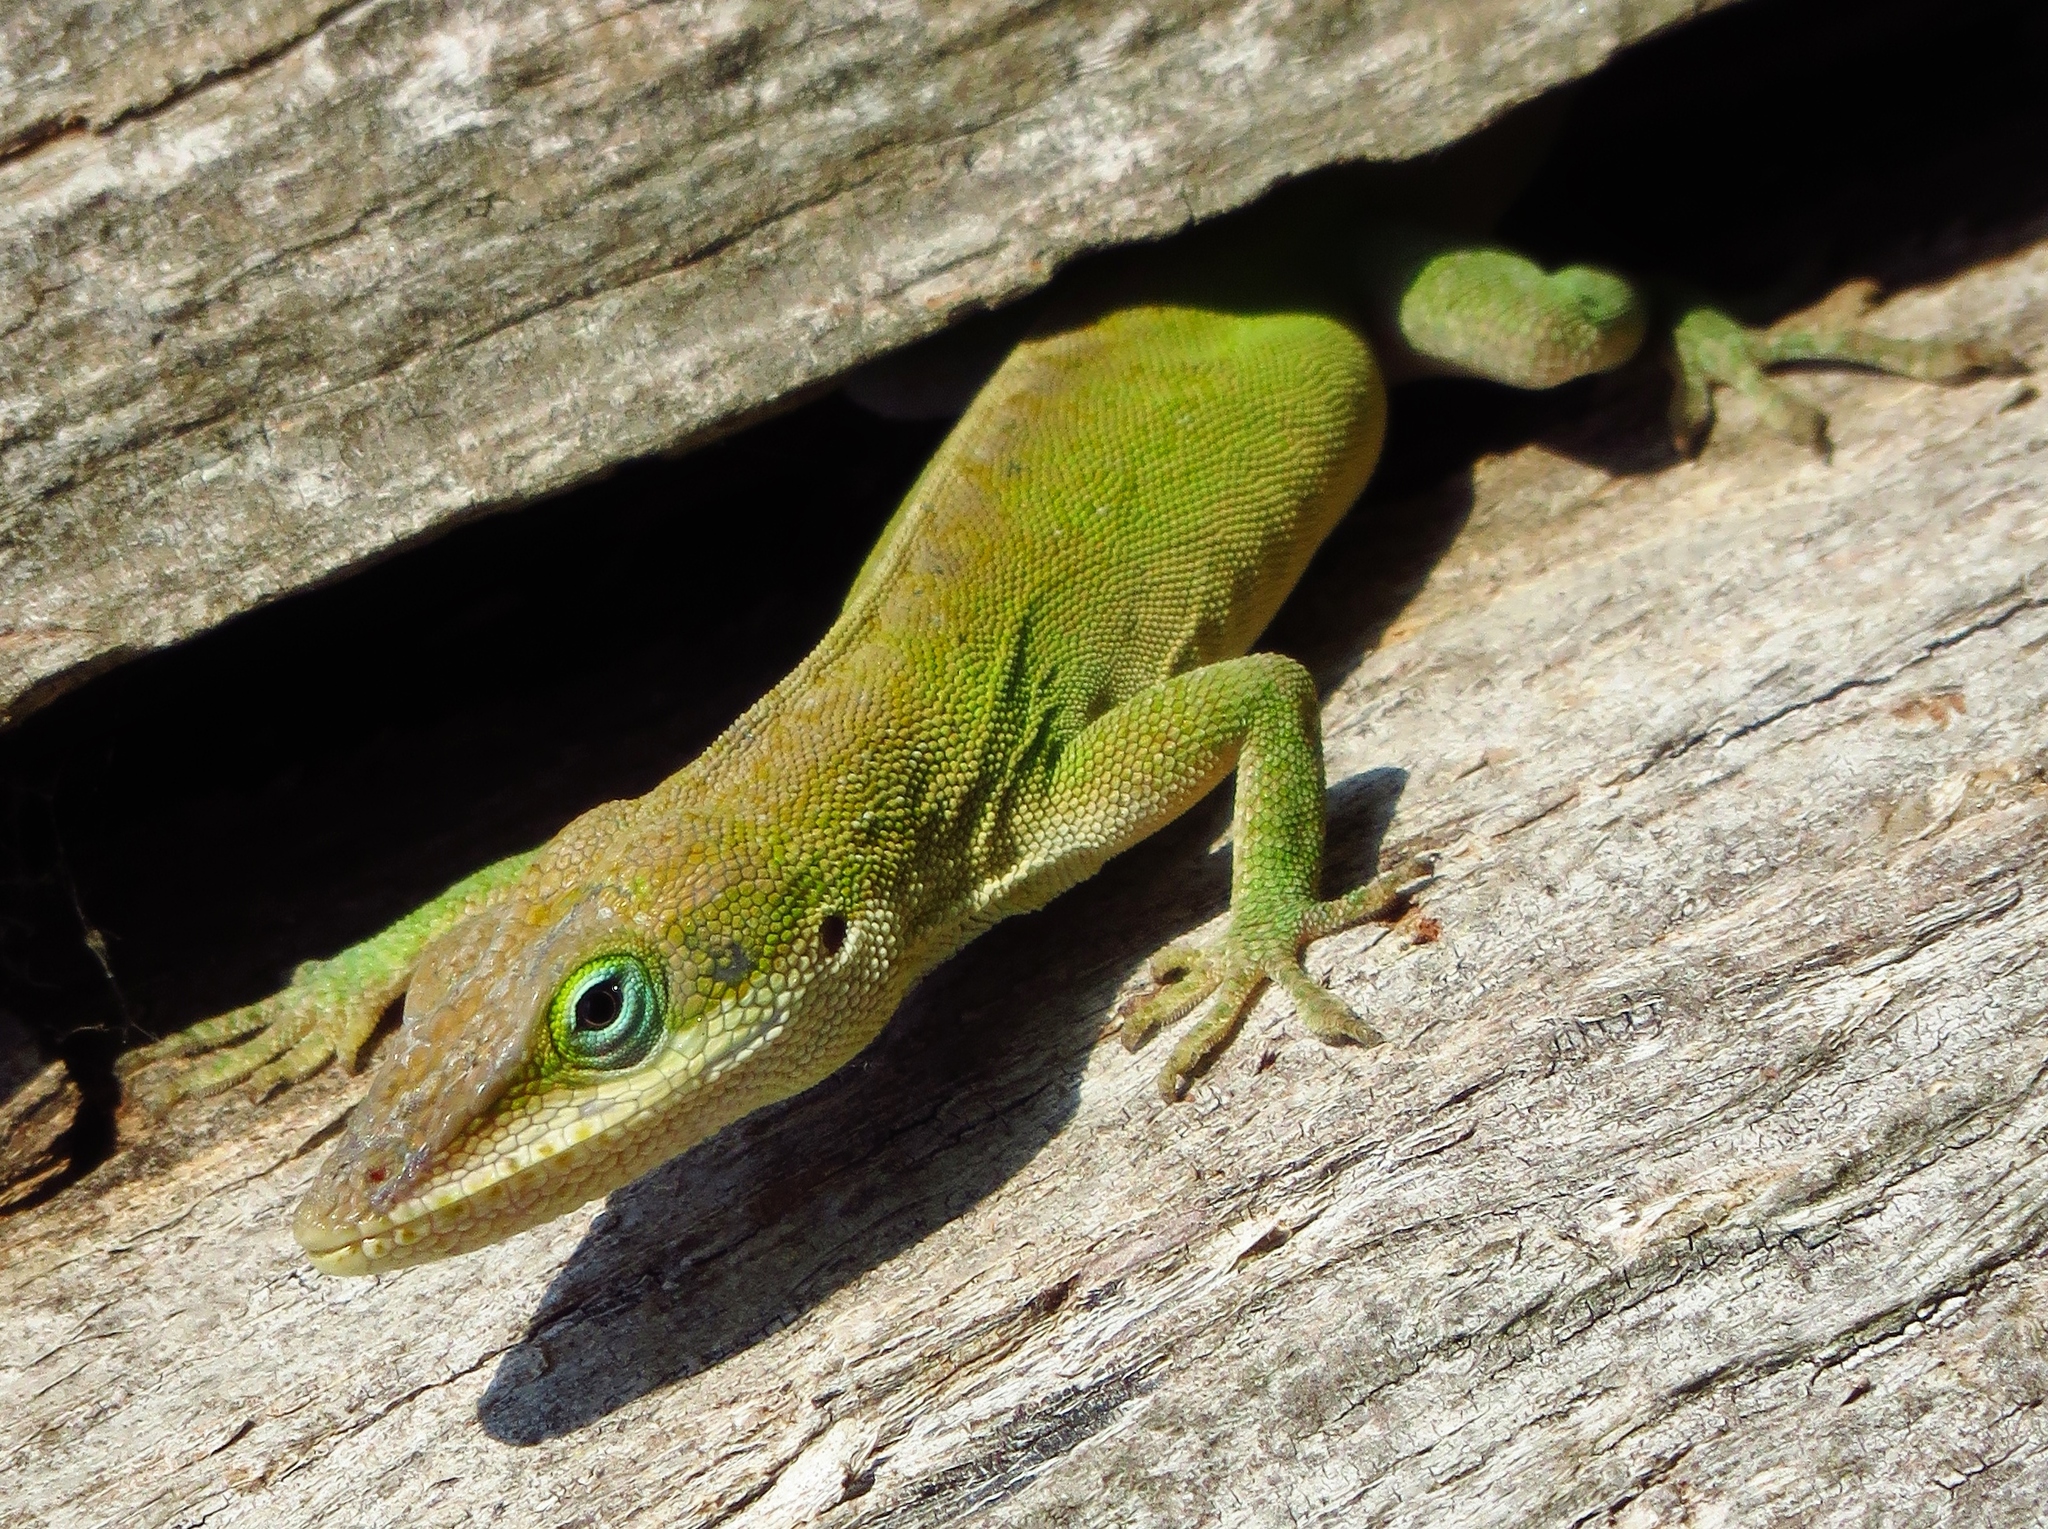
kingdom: Animalia
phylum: Chordata
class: Squamata
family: Dactyloidae
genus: Anolis
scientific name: Anolis carolinensis
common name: Green anole
